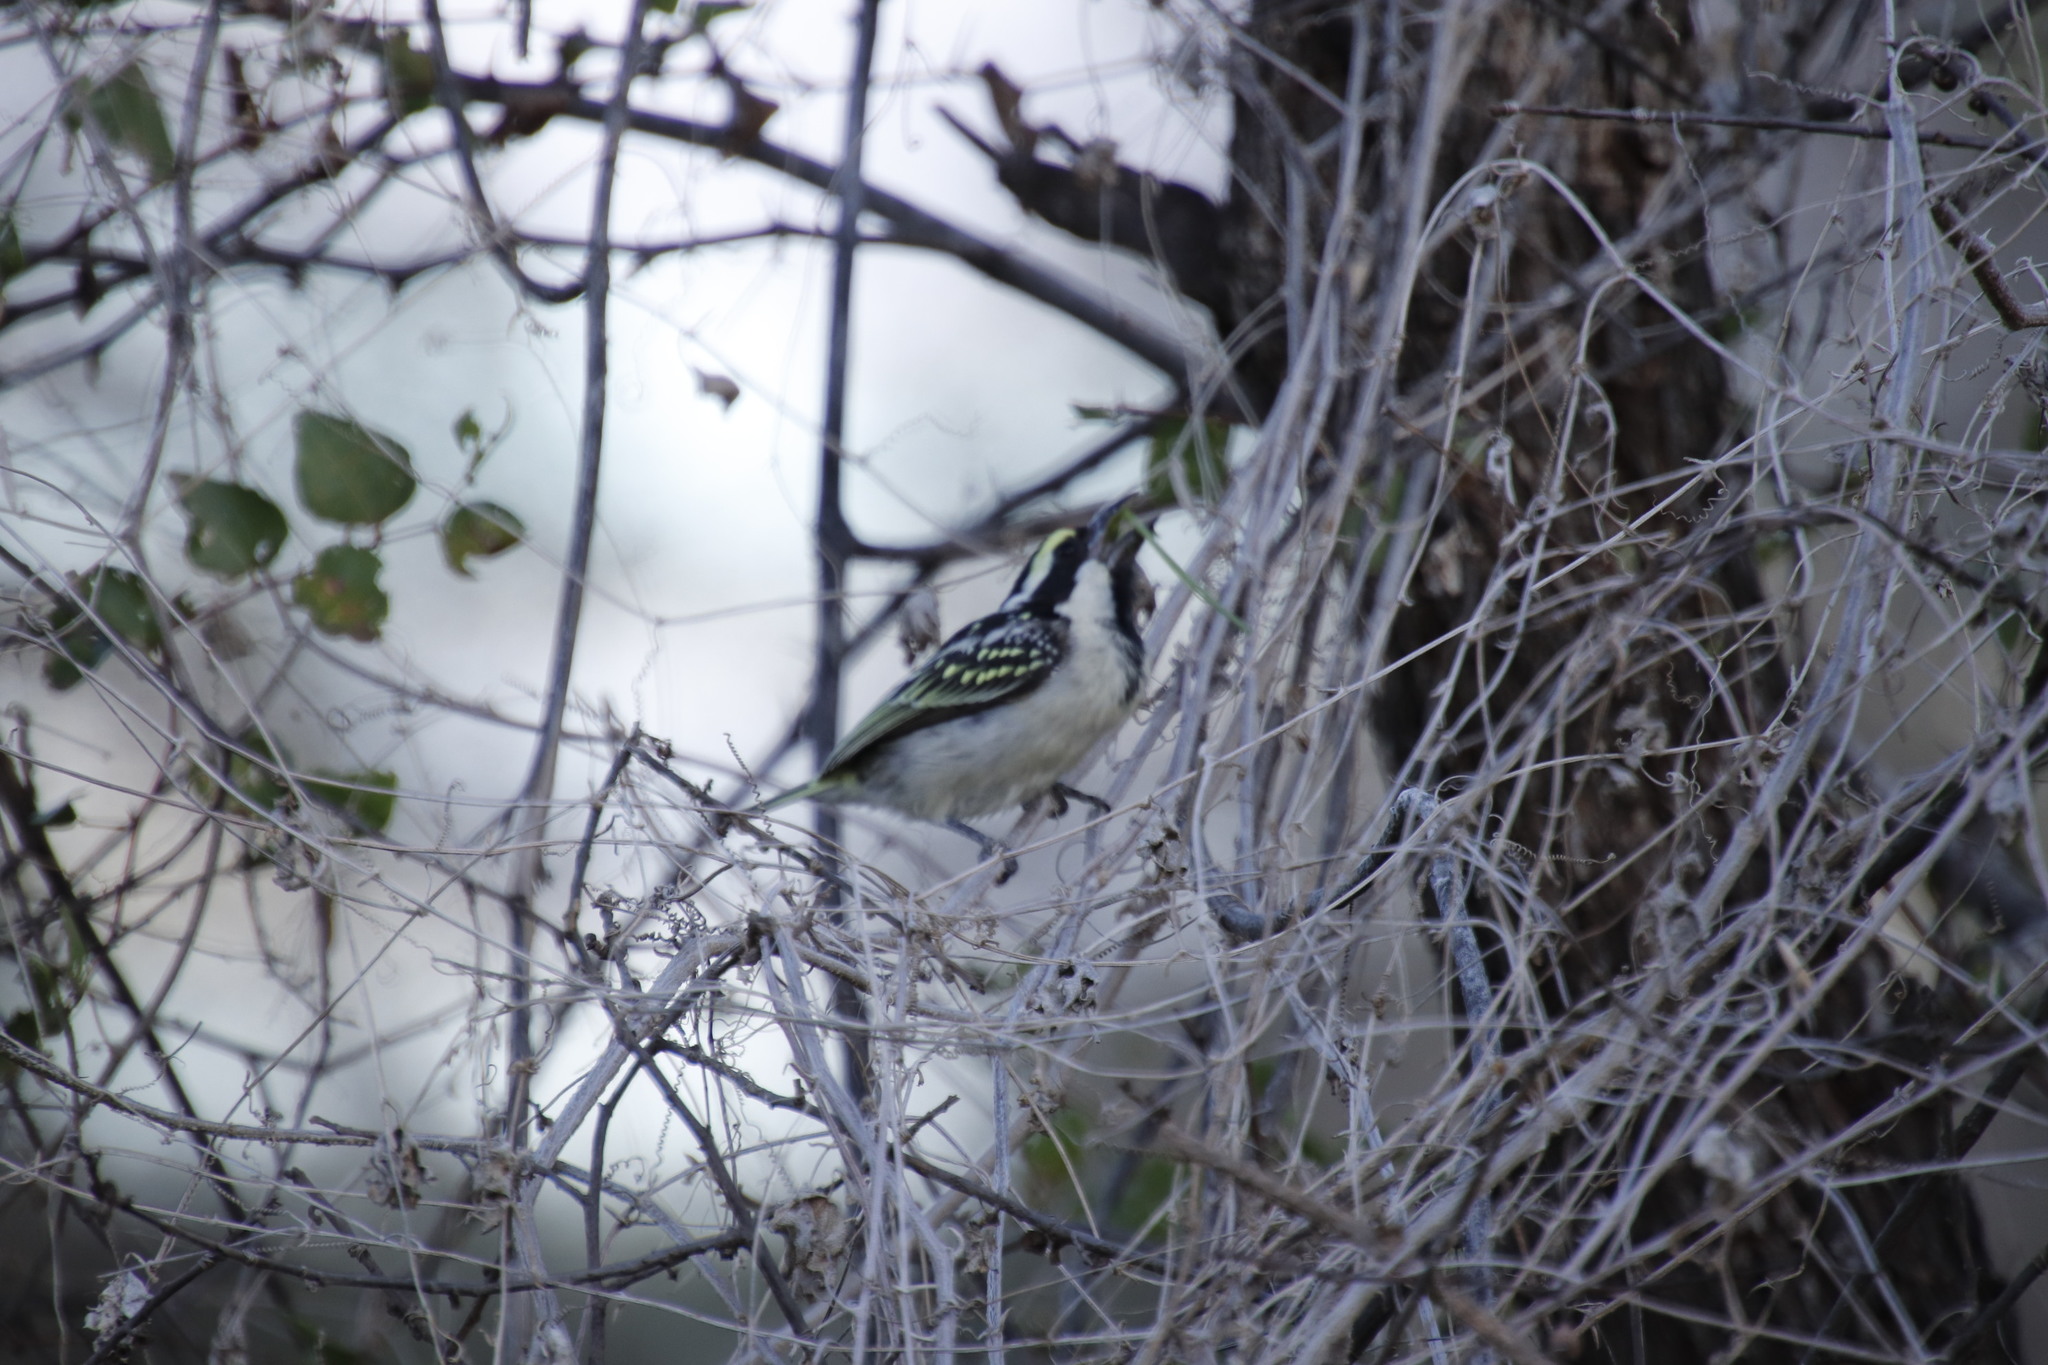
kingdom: Animalia
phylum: Chordata
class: Aves
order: Piciformes
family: Lybiidae
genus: Tricholaema
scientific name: Tricholaema leucomelas
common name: Acacia pied barbet
